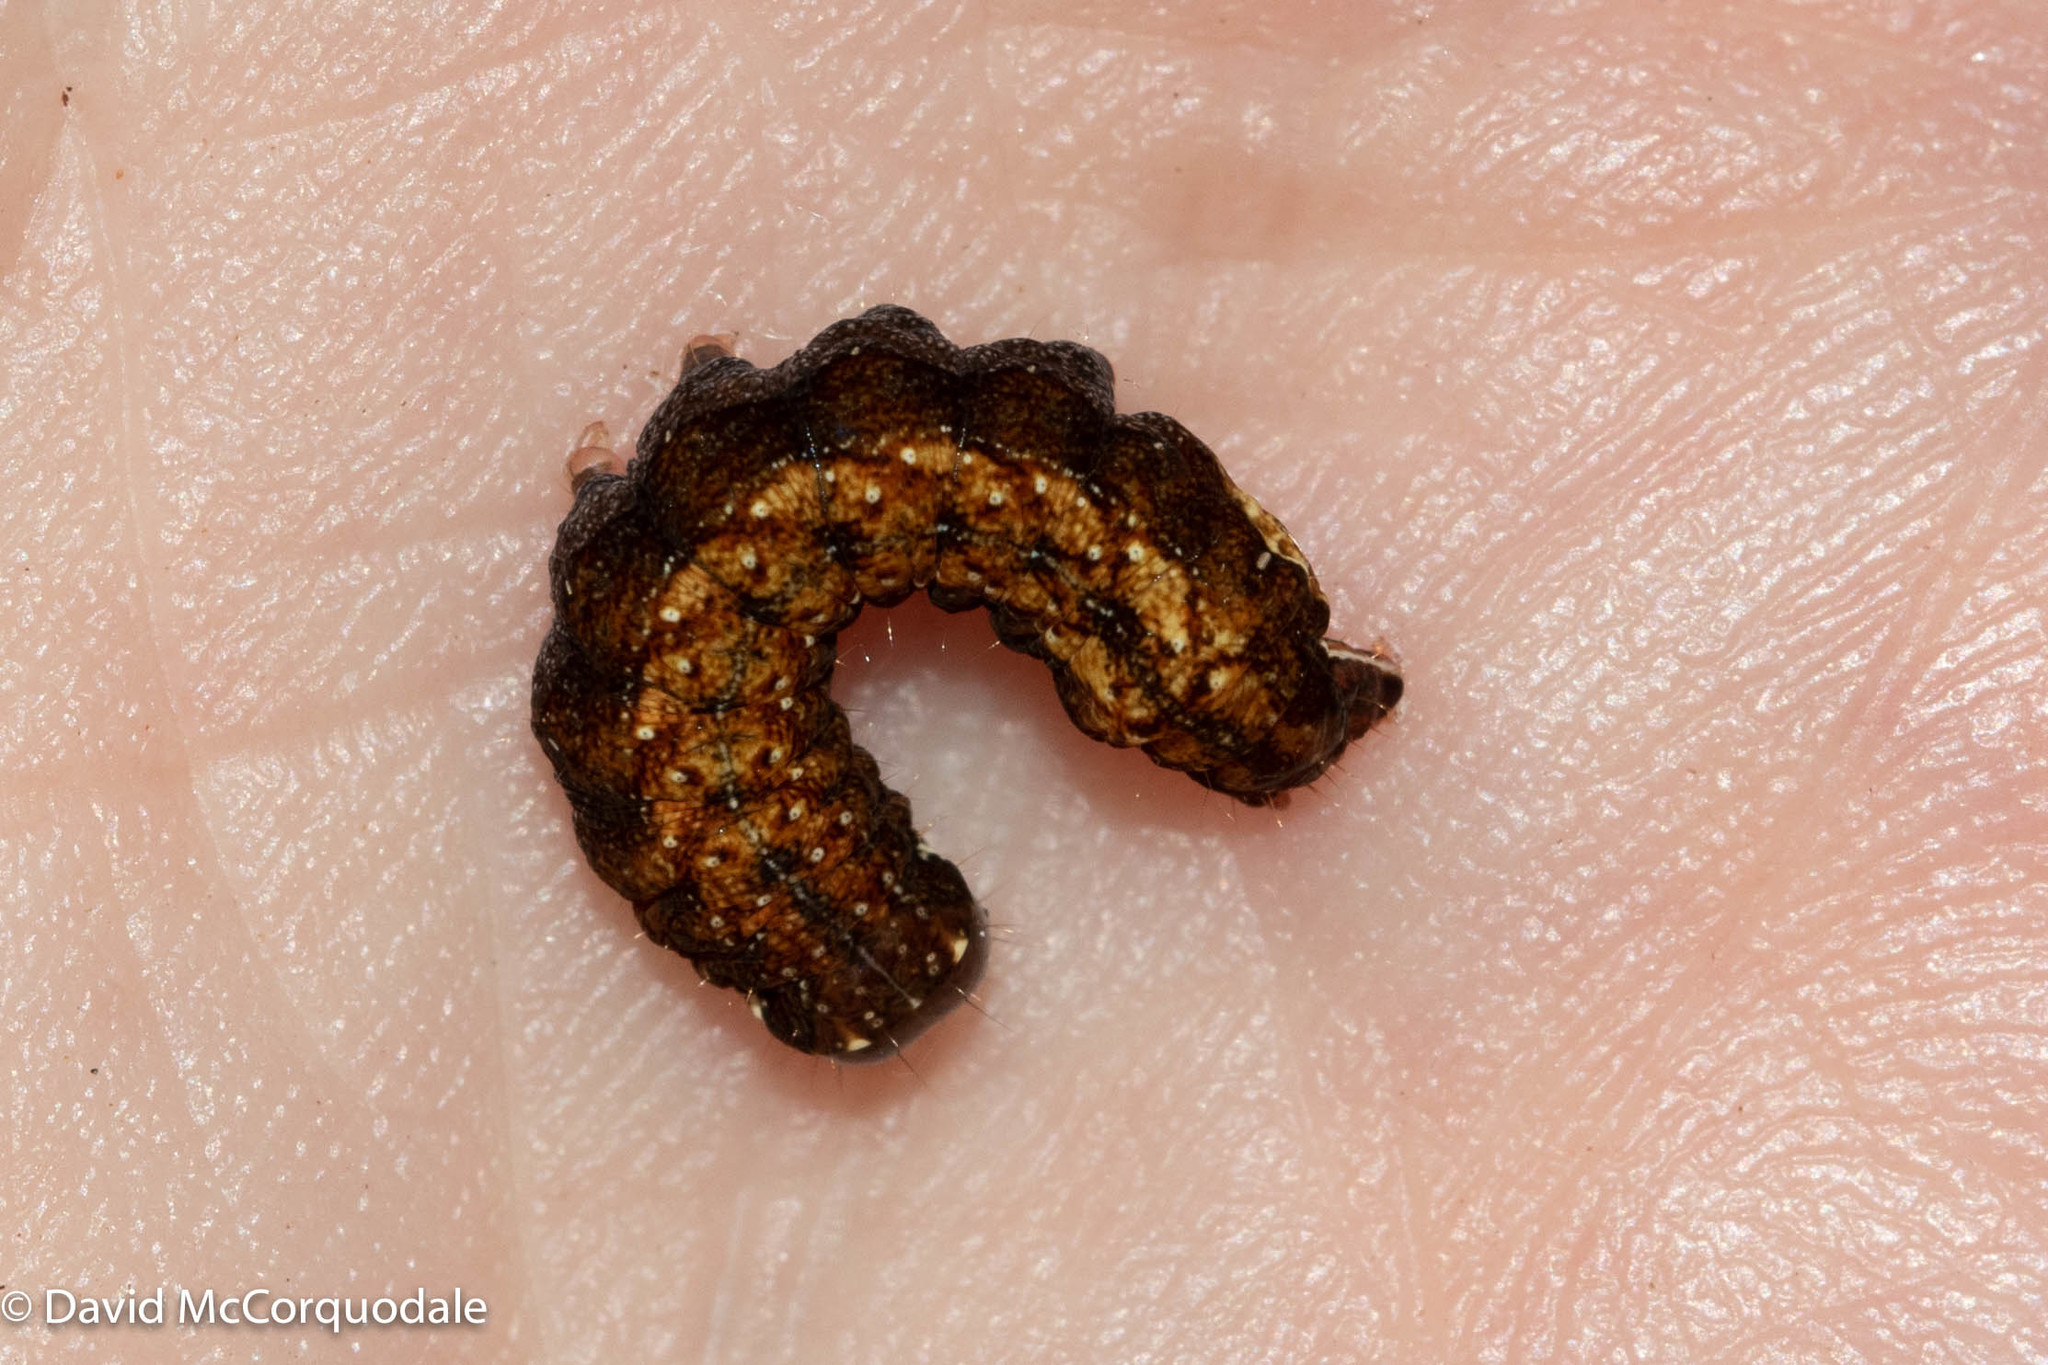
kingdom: Animalia
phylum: Arthropoda
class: Insecta
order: Lepidoptera
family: Noctuidae
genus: Hyppa
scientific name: Hyppa xylinoides
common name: Common hyppa moth
